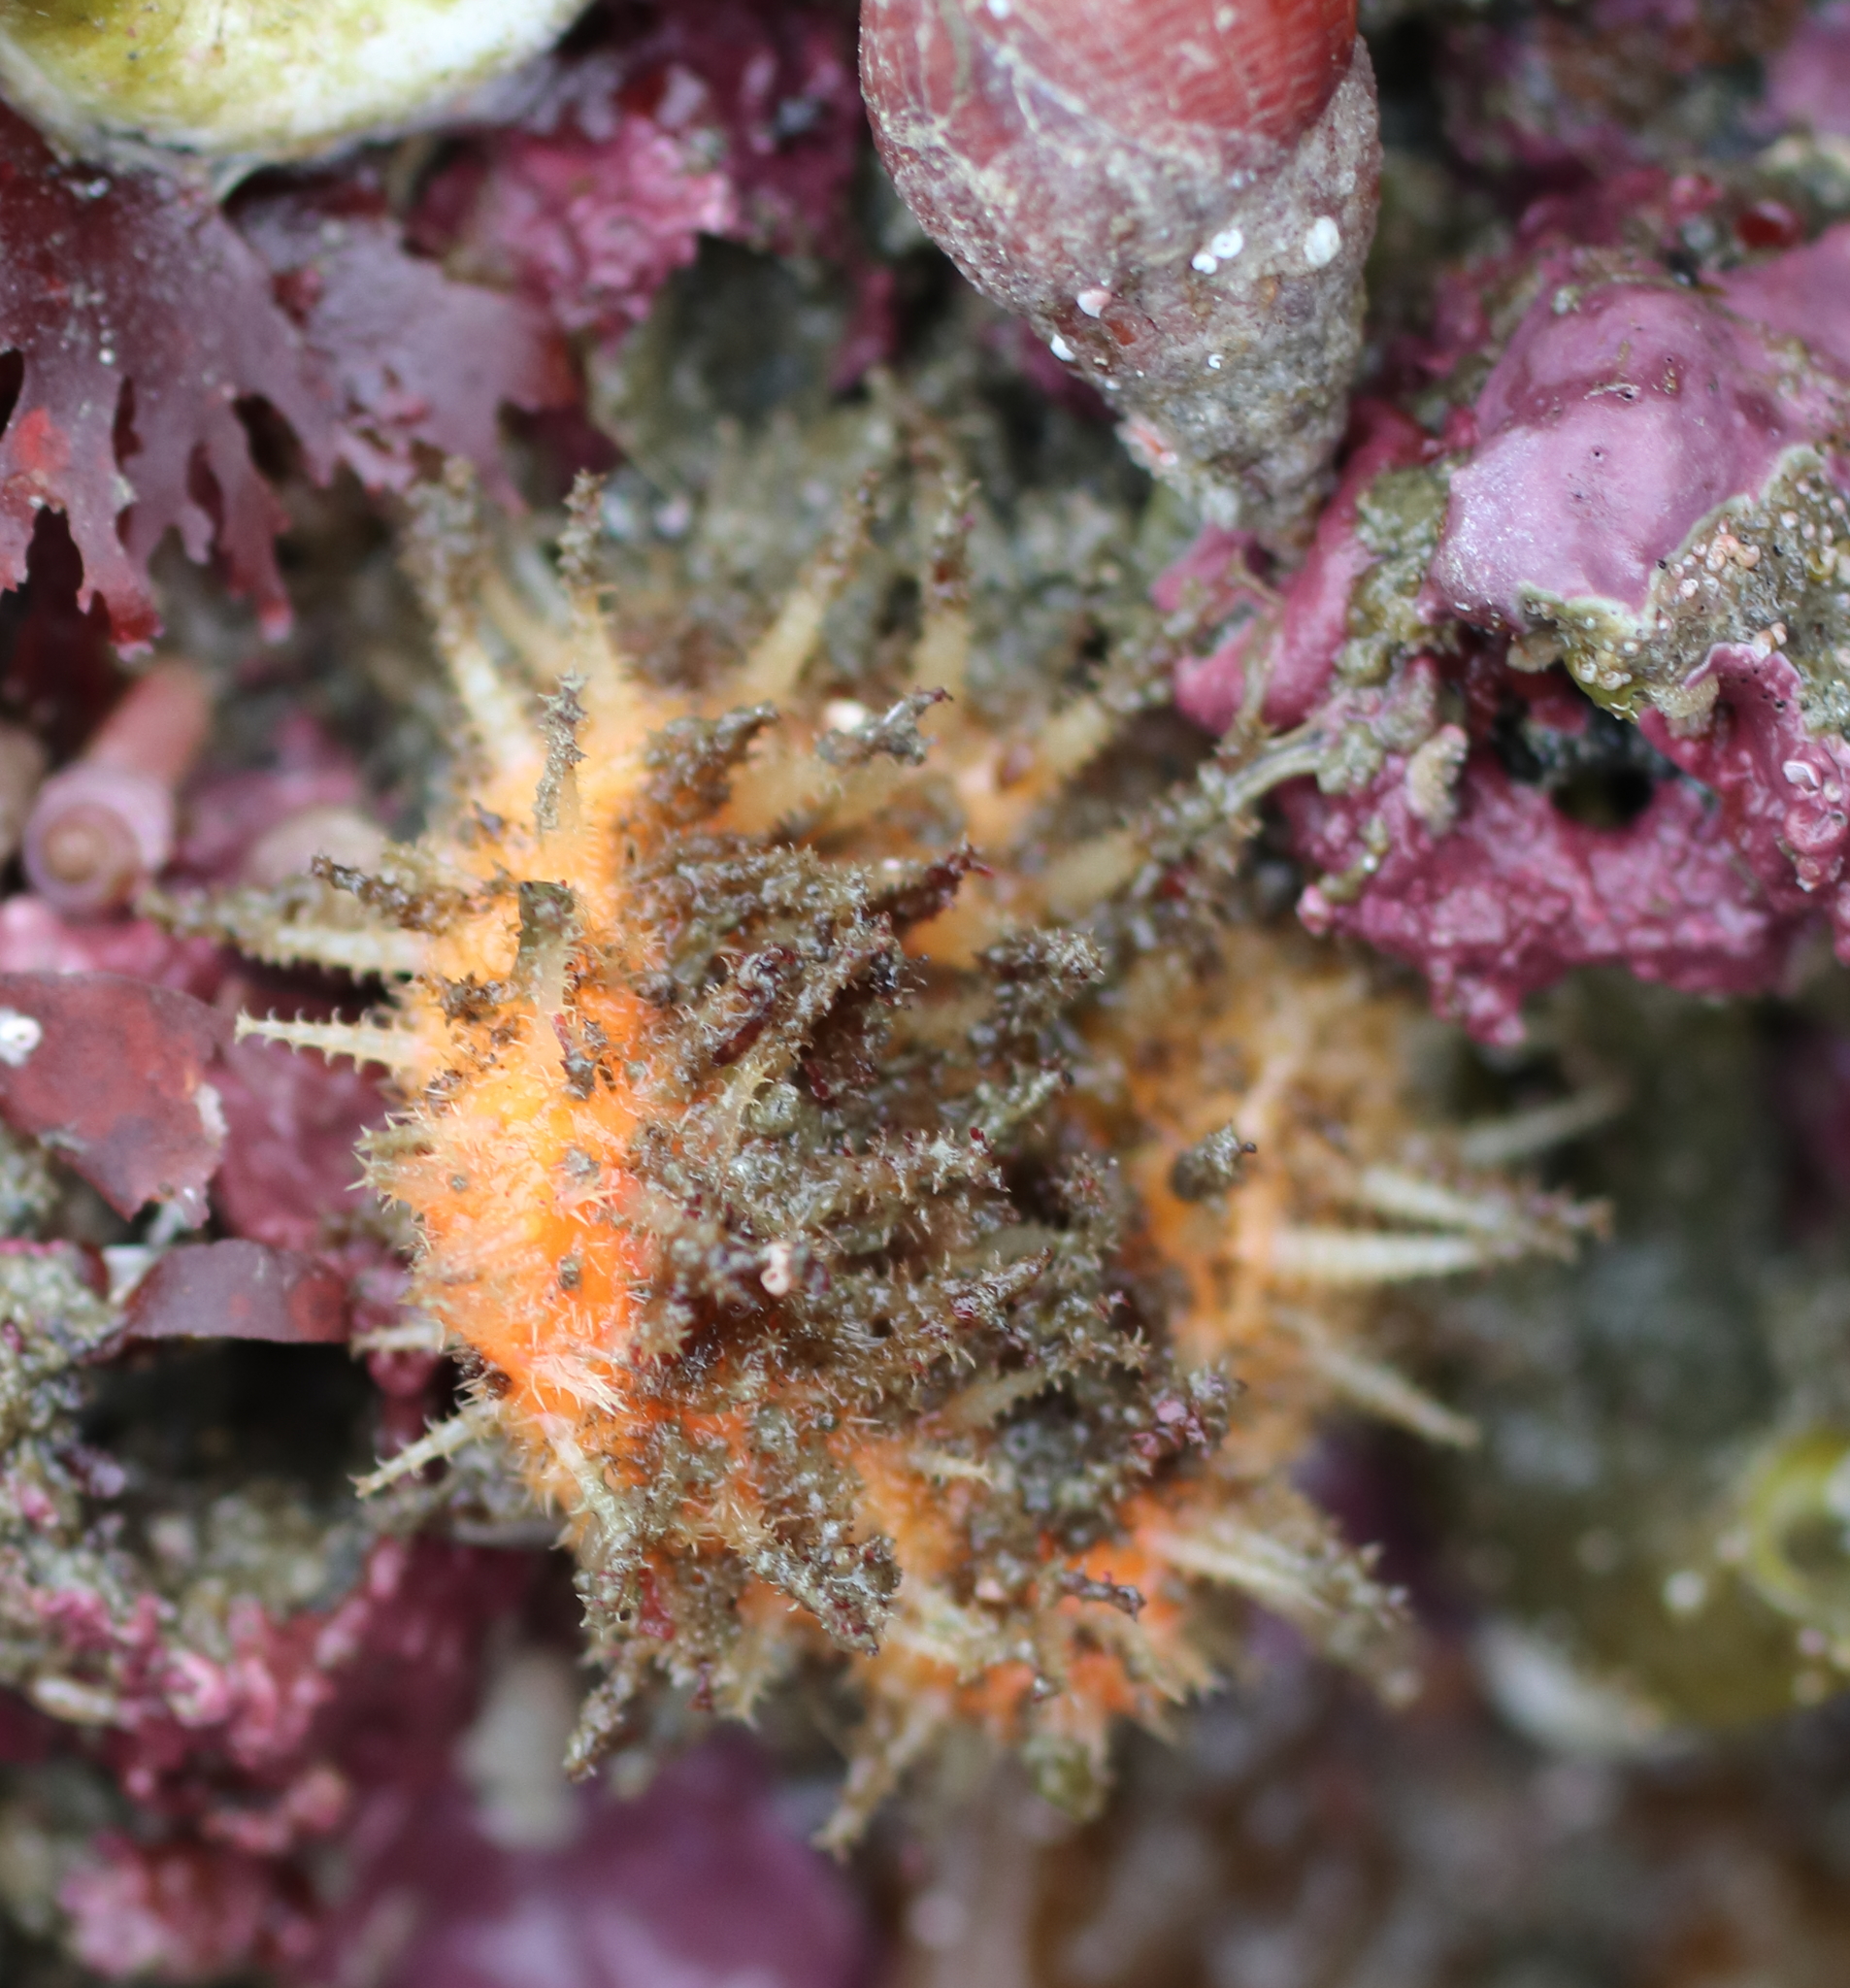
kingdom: Animalia
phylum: Chordata
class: Ascidiacea
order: Stolidobranchia
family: Pyuridae
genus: Halocynthia
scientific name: Halocynthia igaboja
